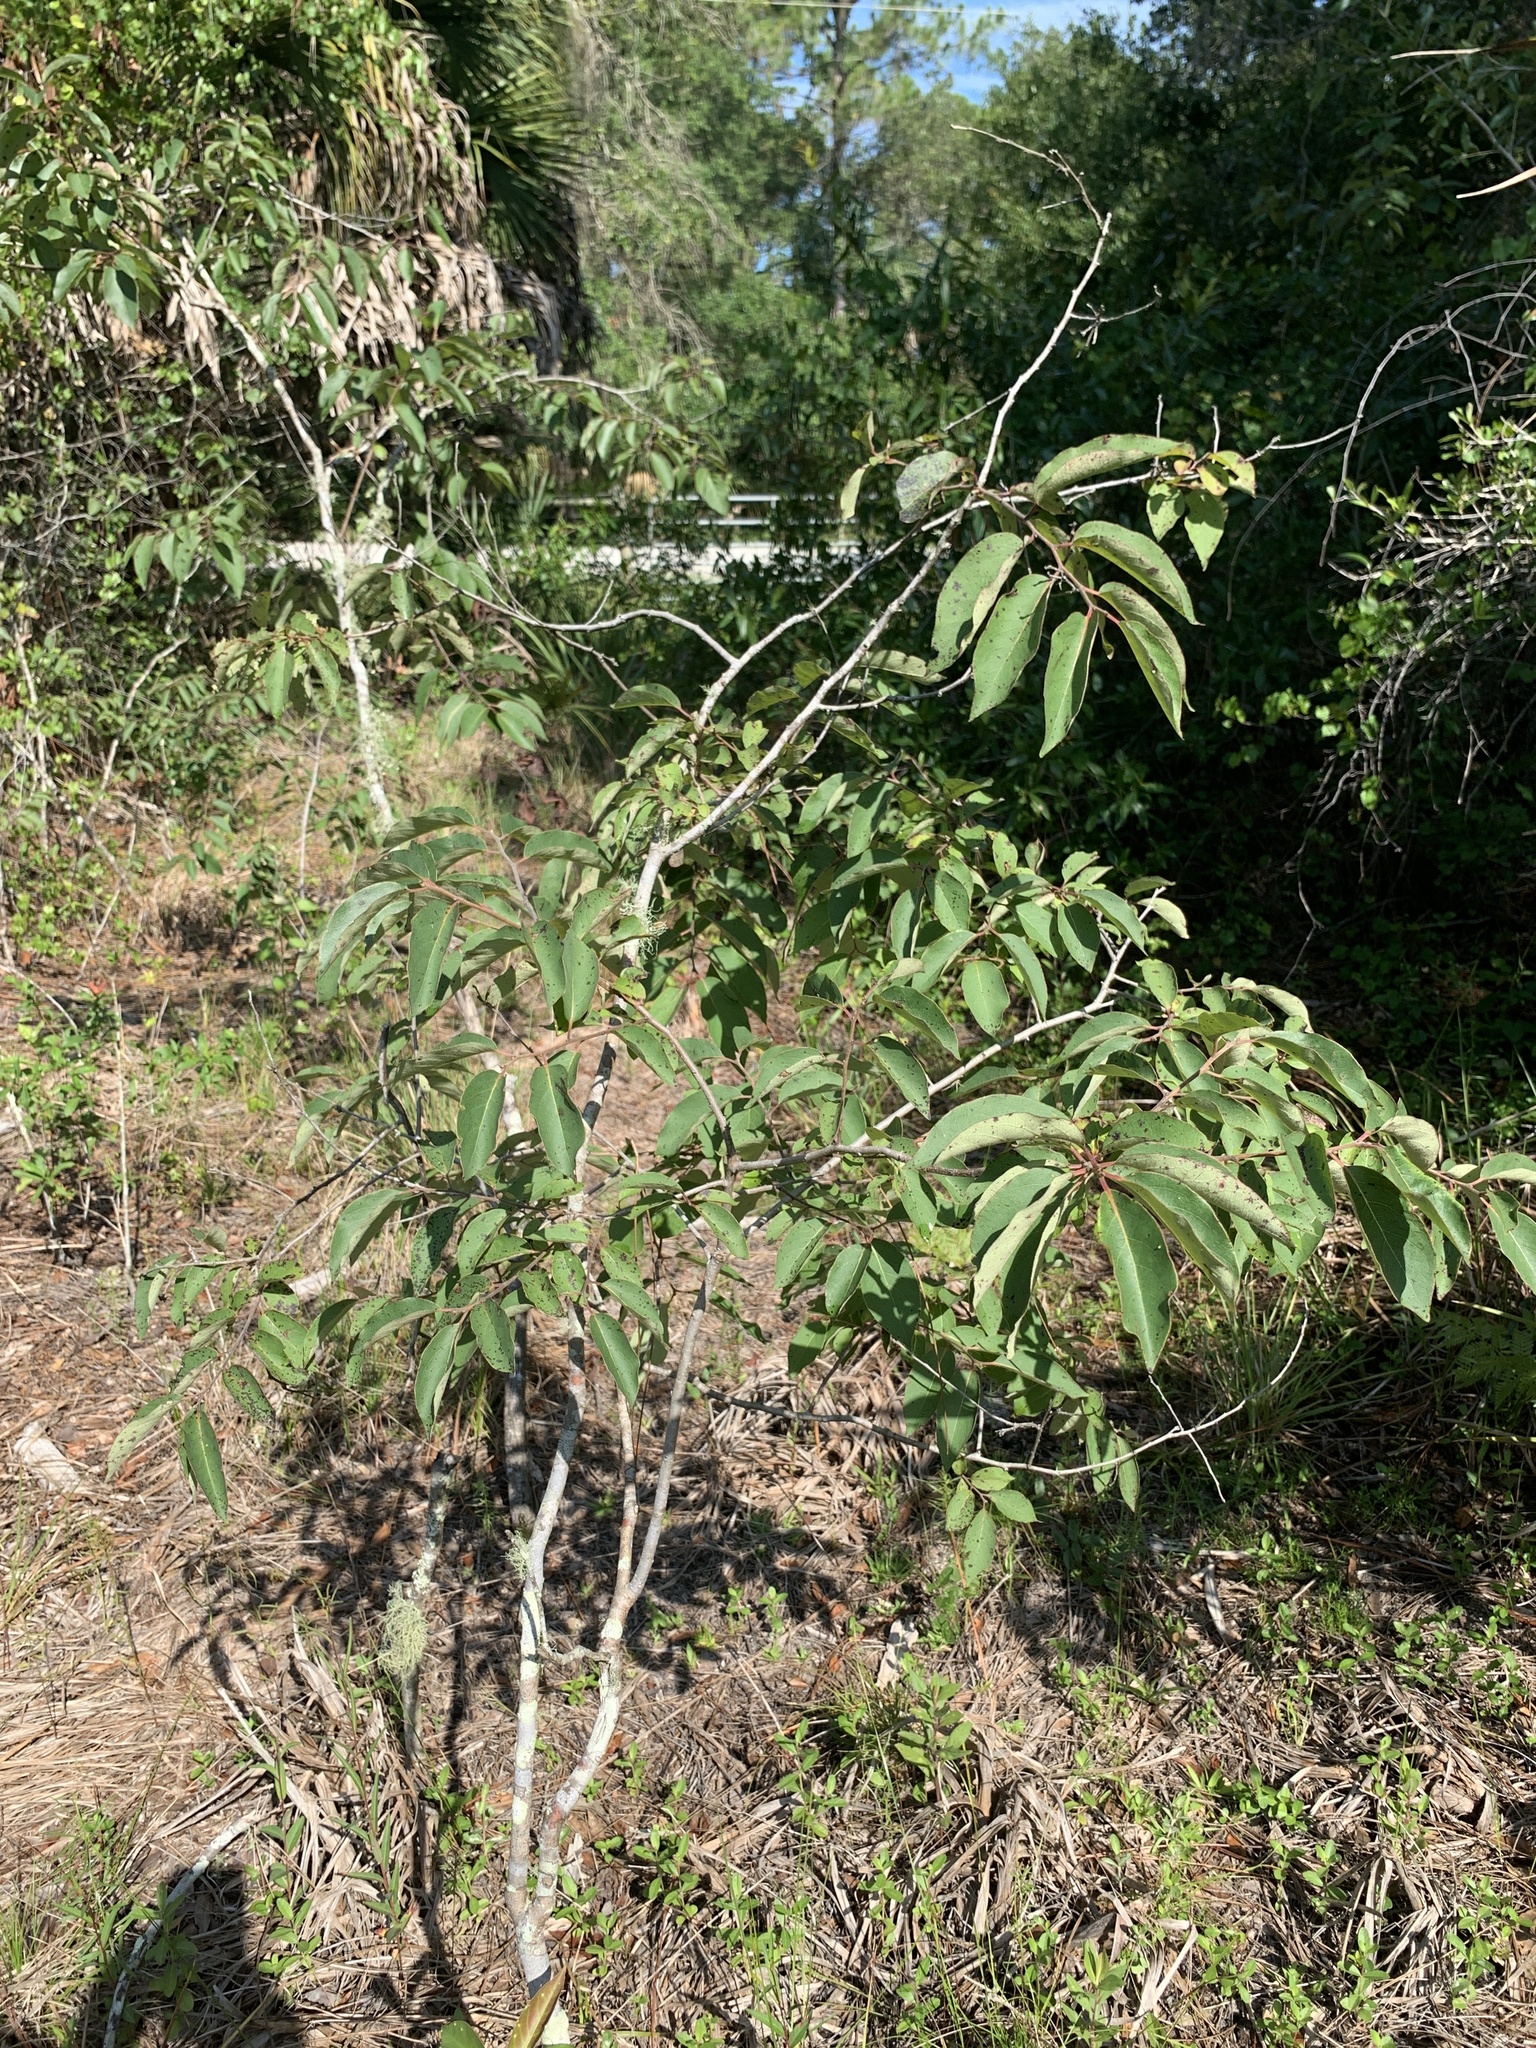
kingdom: Plantae
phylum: Tracheophyta
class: Magnoliopsida
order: Ericales
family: Ebenaceae
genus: Diospyros
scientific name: Diospyros virginiana
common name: Persimmon
